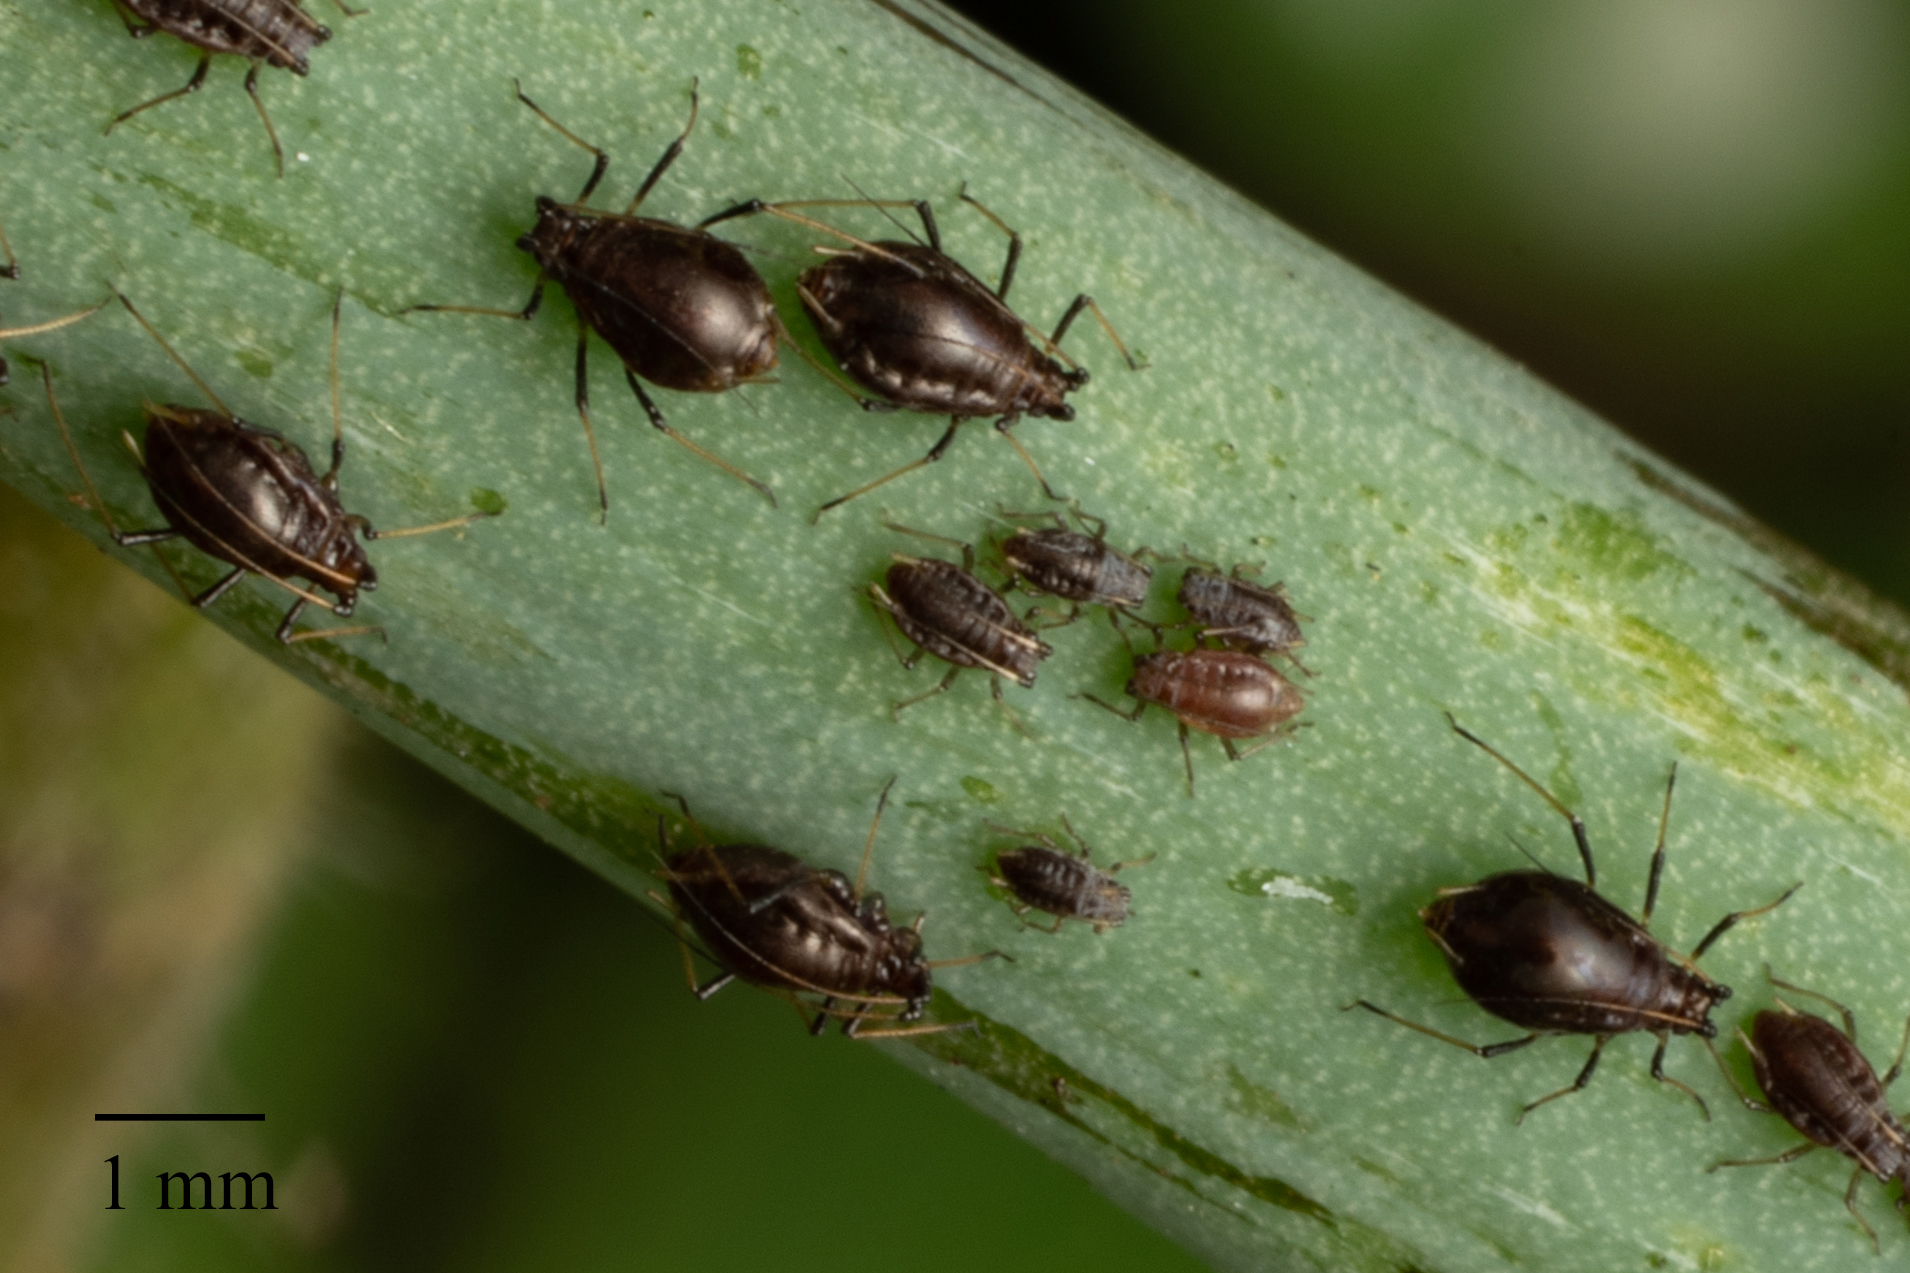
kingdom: Animalia
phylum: Arthropoda
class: Insecta
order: Hemiptera
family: Aphididae
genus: Neotoxoptera
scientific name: Neotoxoptera formosana
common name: Onion aphid
